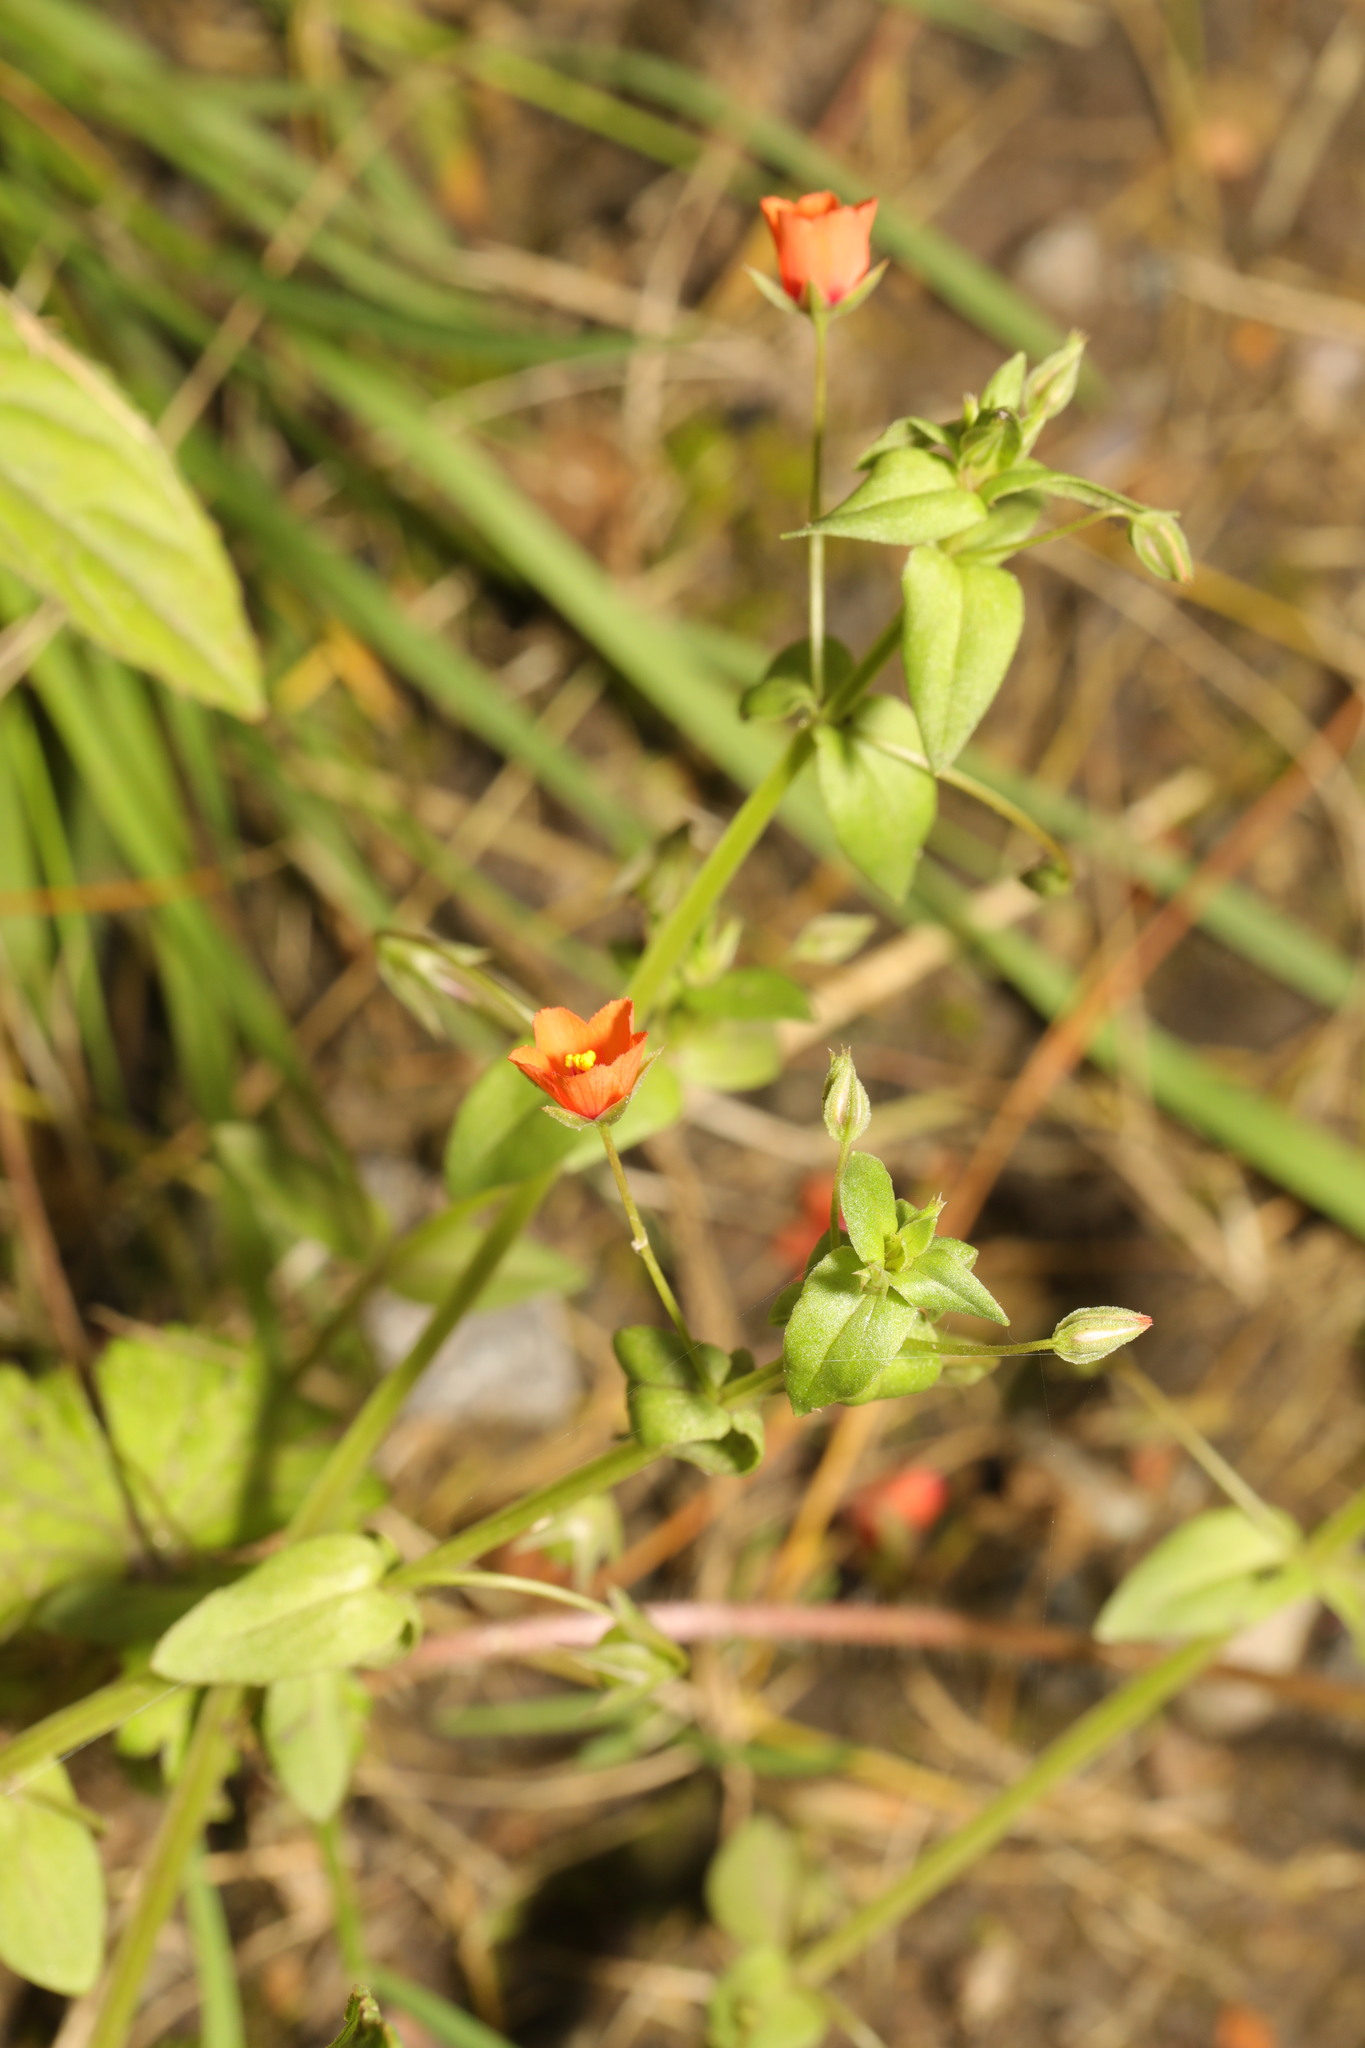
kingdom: Plantae
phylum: Tracheophyta
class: Magnoliopsida
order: Ericales
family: Primulaceae
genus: Lysimachia
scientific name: Lysimachia arvensis
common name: Scarlet pimpernel
